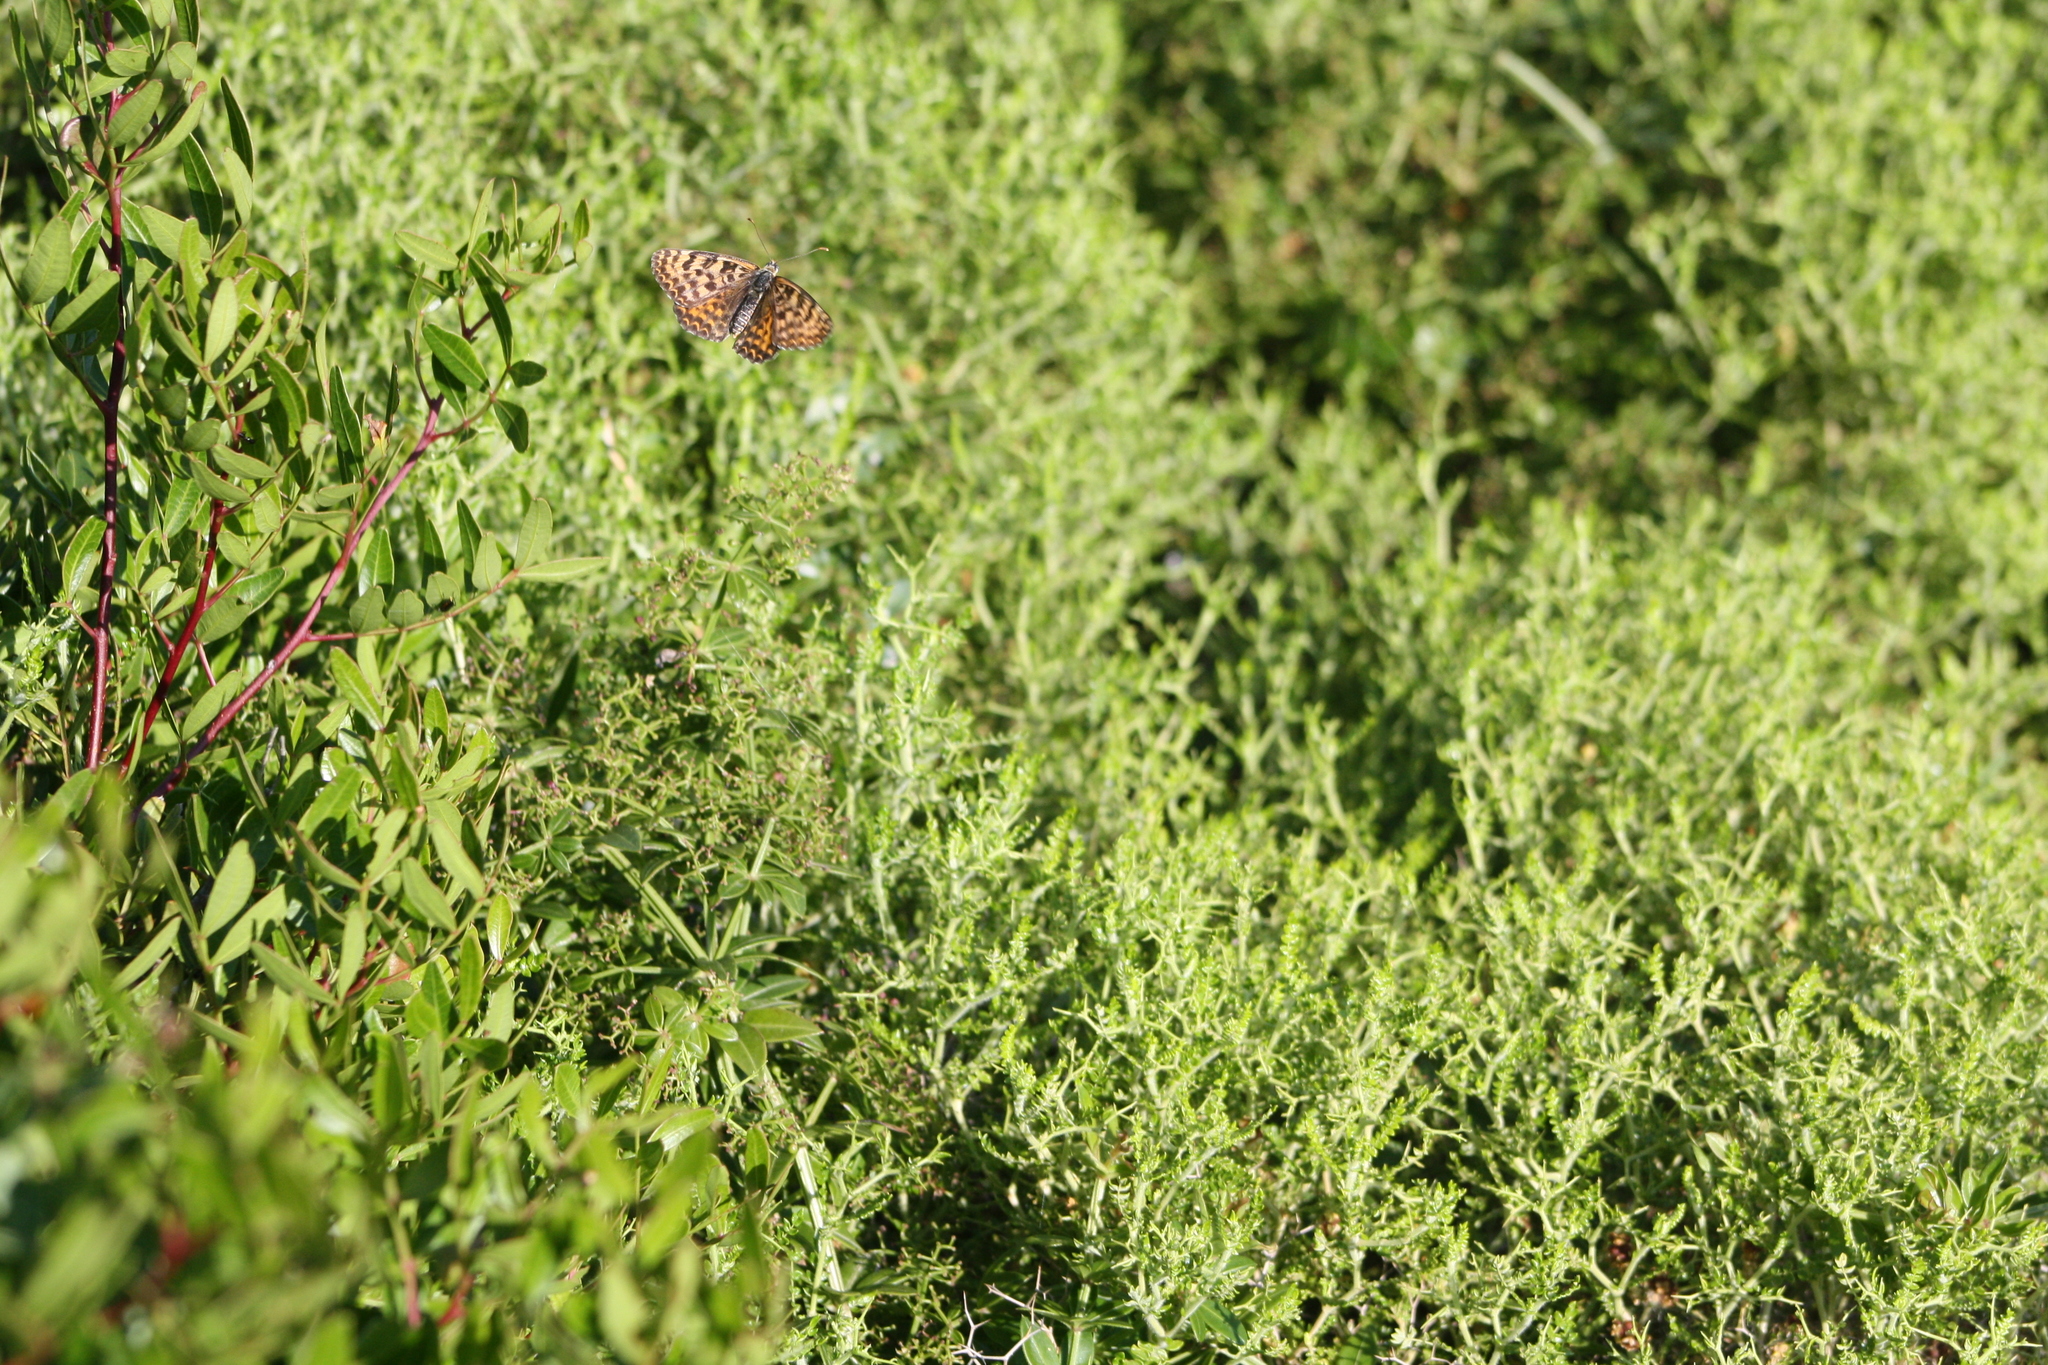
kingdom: Animalia
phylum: Arthropoda
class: Insecta
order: Lepidoptera
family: Nymphalidae
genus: Melitaea
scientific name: Melitaea didyma
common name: Spotted fritillary
